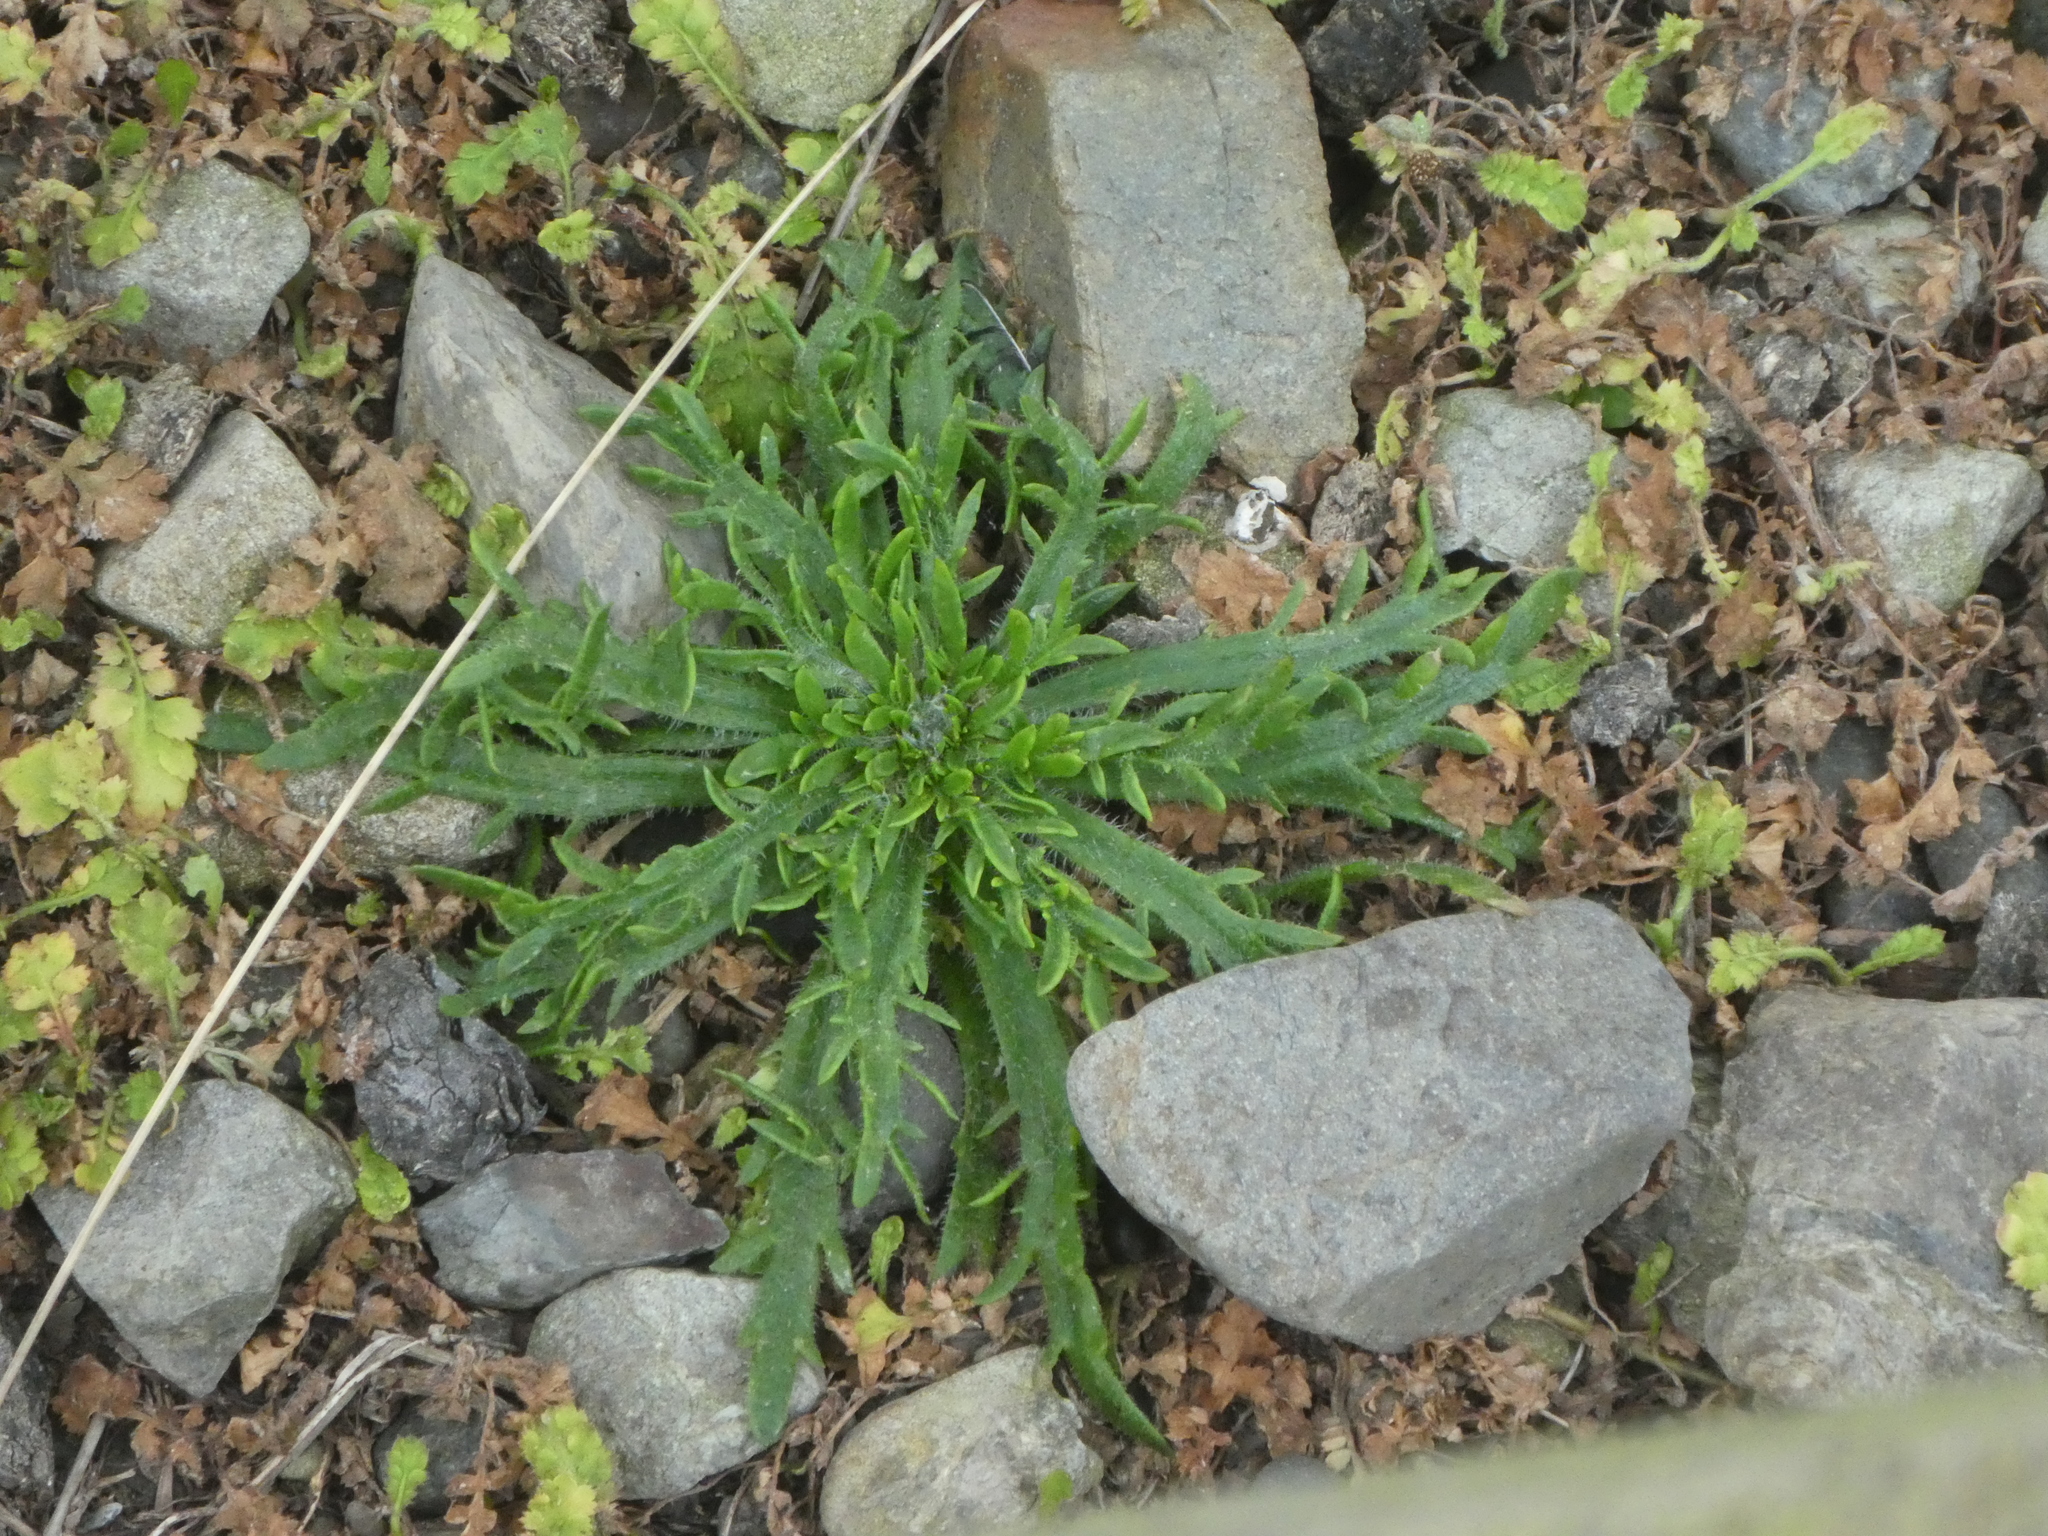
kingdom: Plantae
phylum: Tracheophyta
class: Magnoliopsida
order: Lamiales
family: Plantaginaceae
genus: Plantago
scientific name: Plantago coronopus
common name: Buck's-horn plantain
